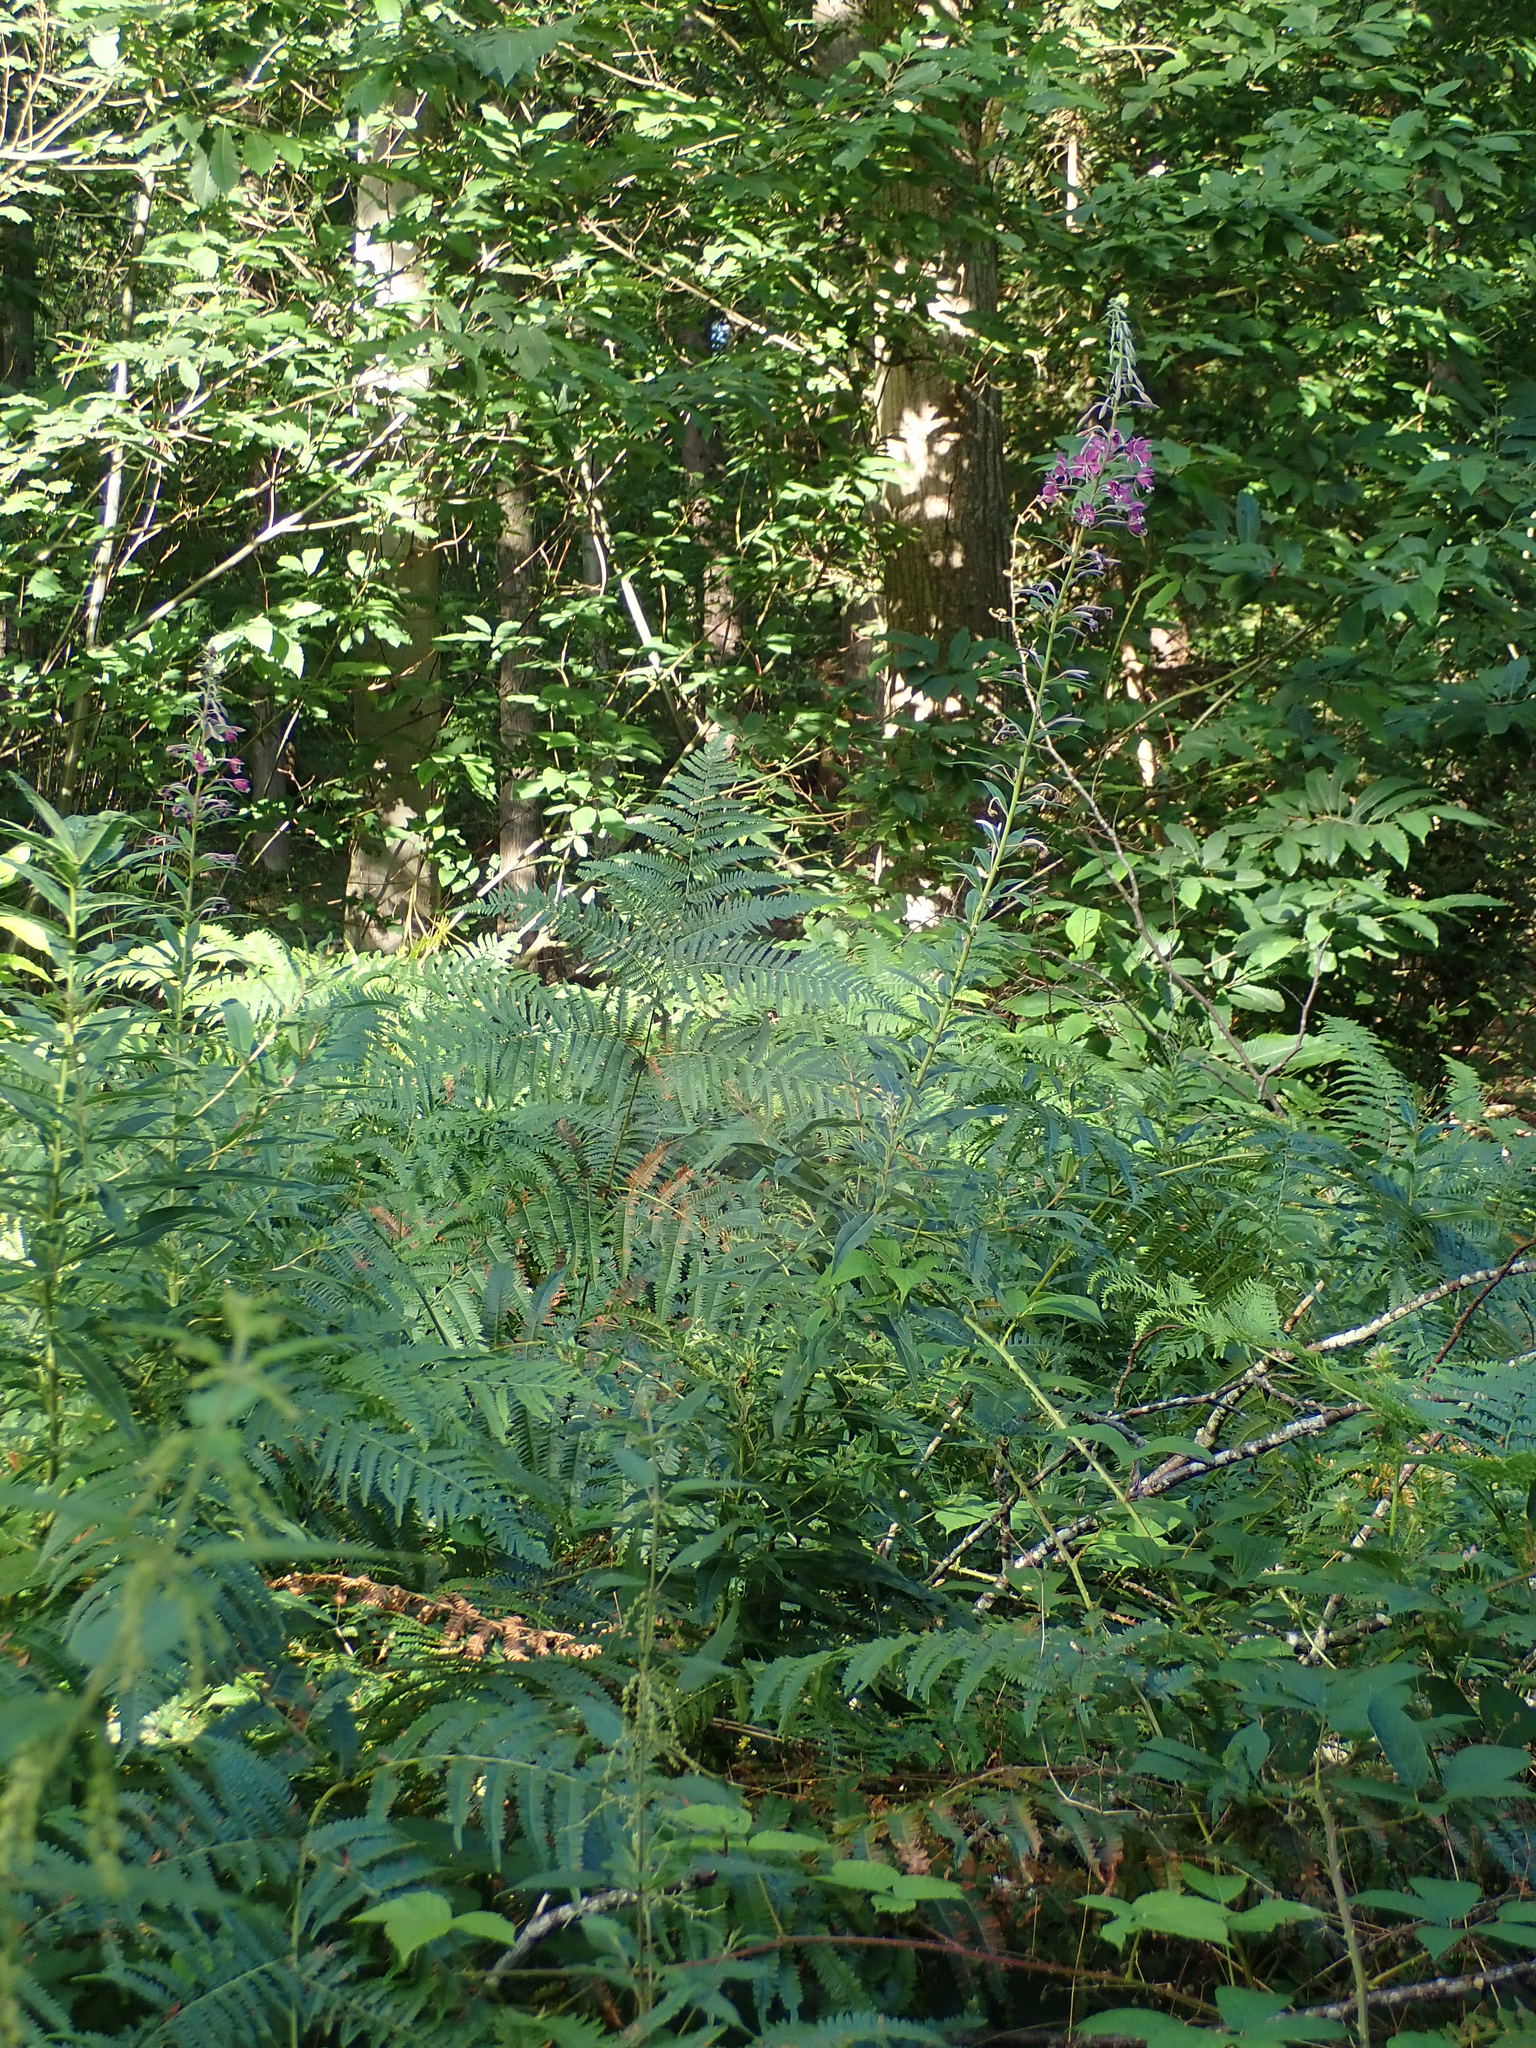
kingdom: Plantae
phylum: Tracheophyta
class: Magnoliopsida
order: Myrtales
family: Onagraceae
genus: Chamaenerion
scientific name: Chamaenerion angustifolium
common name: Fireweed
